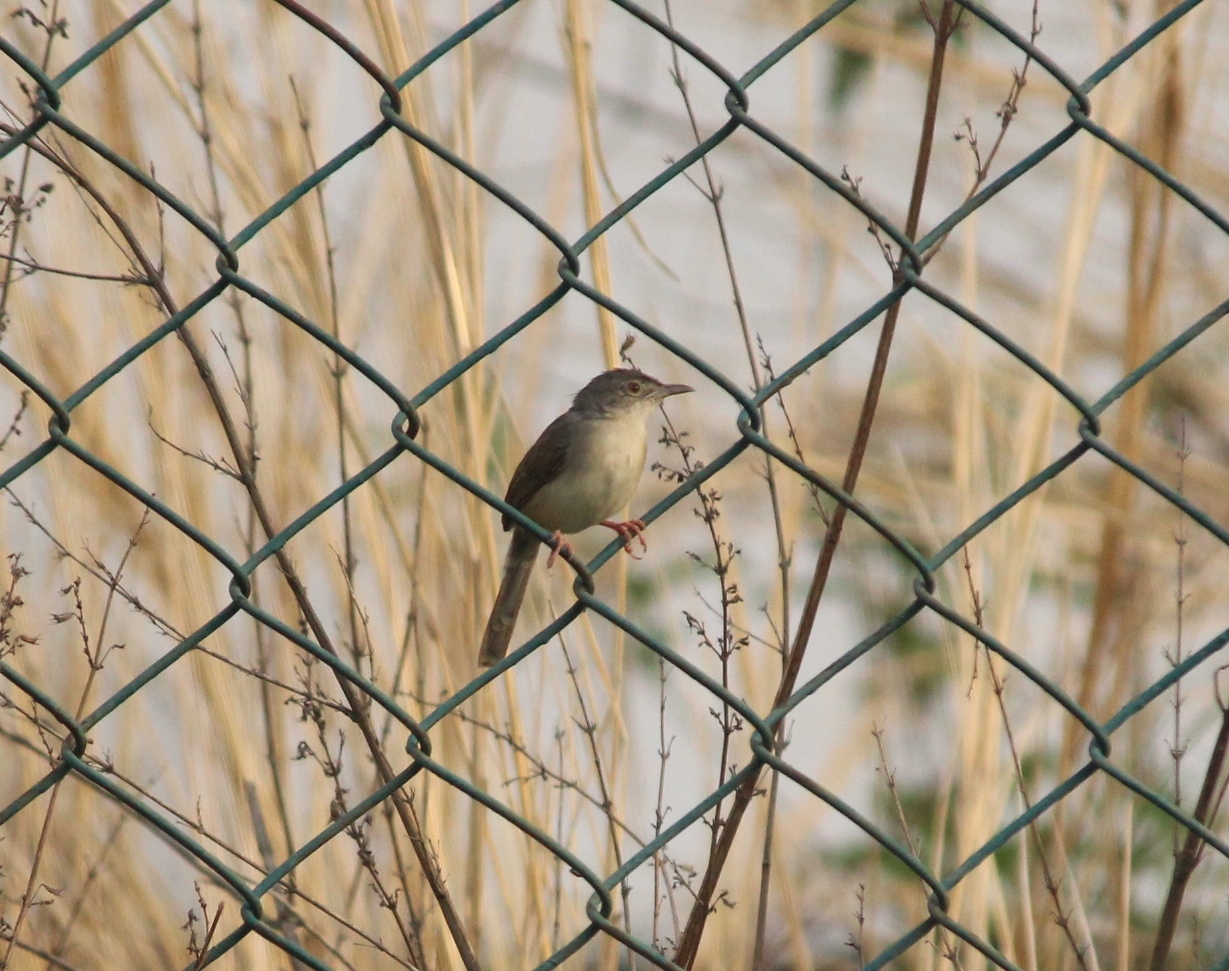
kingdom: Animalia
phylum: Chordata
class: Aves
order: Passeriformes
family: Cisticolidae
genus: Prinia
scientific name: Prinia inornata
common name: Plain prinia
